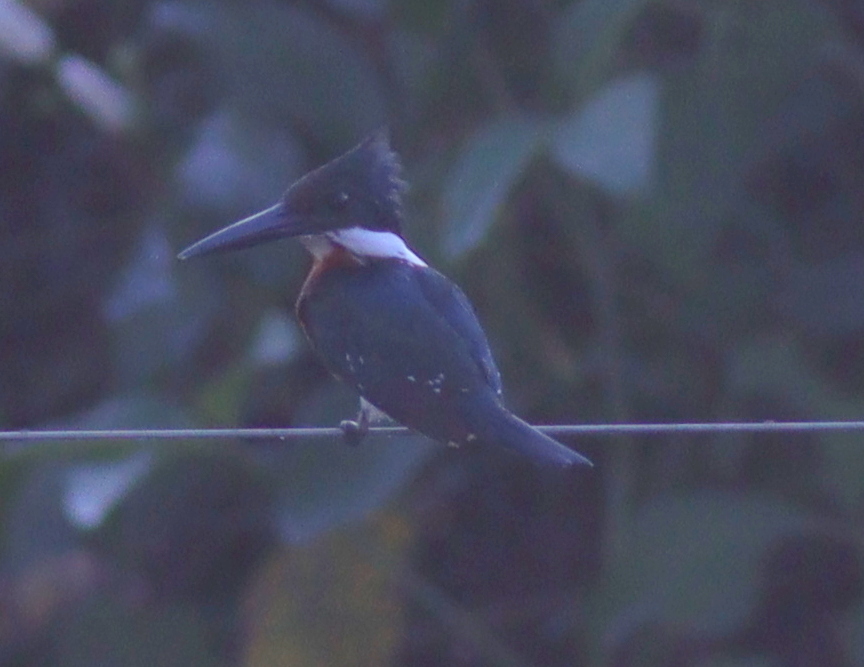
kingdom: Animalia
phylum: Chordata
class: Aves
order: Coraciiformes
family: Alcedinidae
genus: Chloroceryle
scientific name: Chloroceryle americana
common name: Green kingfisher
